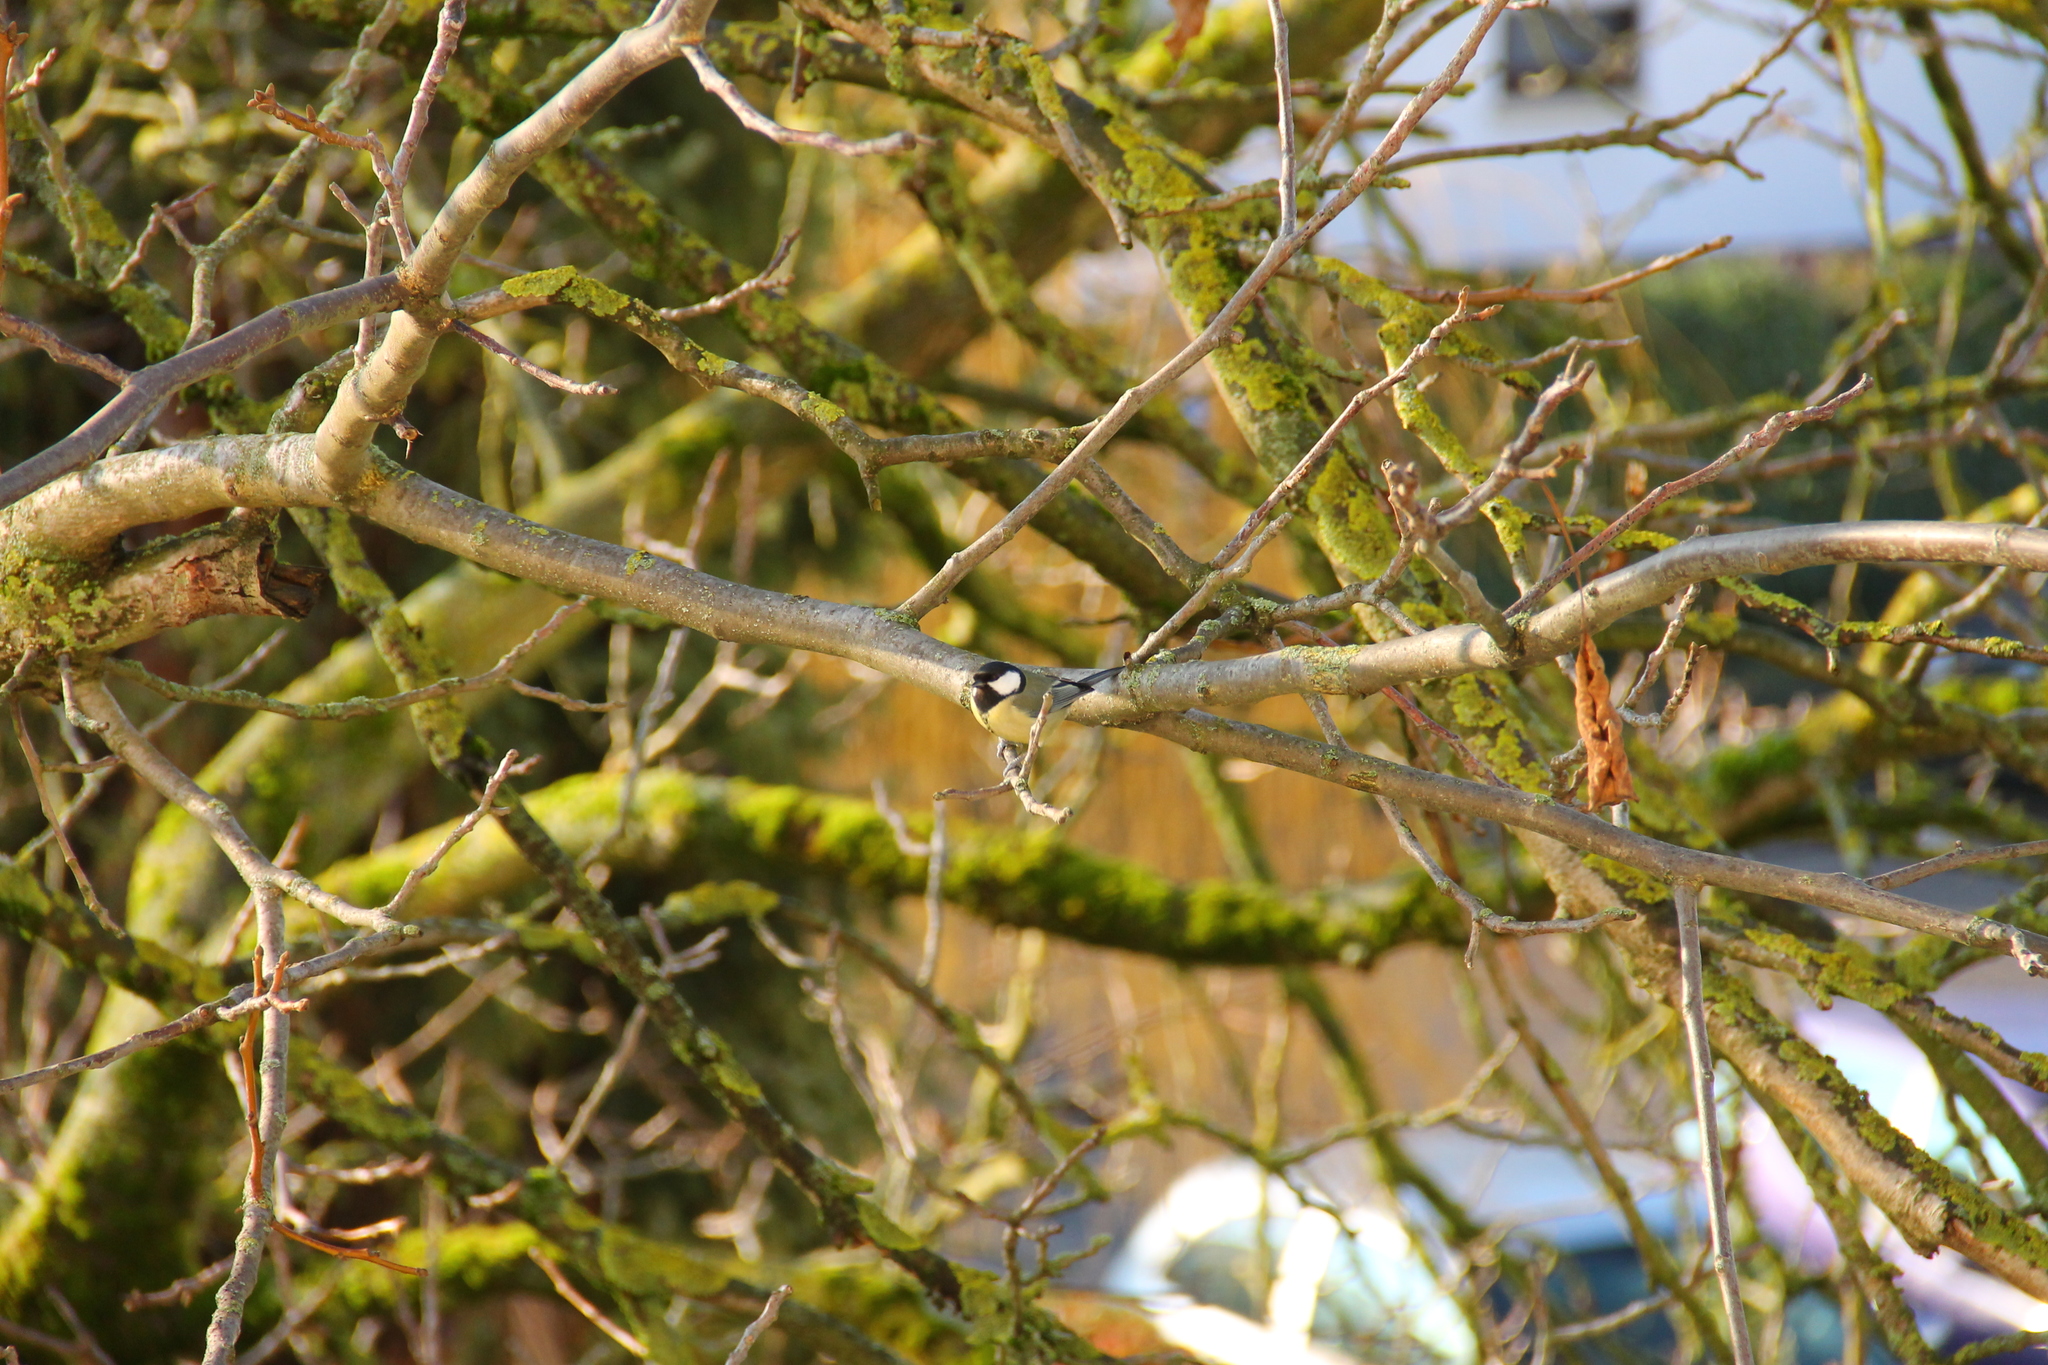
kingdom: Animalia
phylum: Chordata
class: Aves
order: Passeriformes
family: Paridae
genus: Parus
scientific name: Parus major
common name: Great tit
